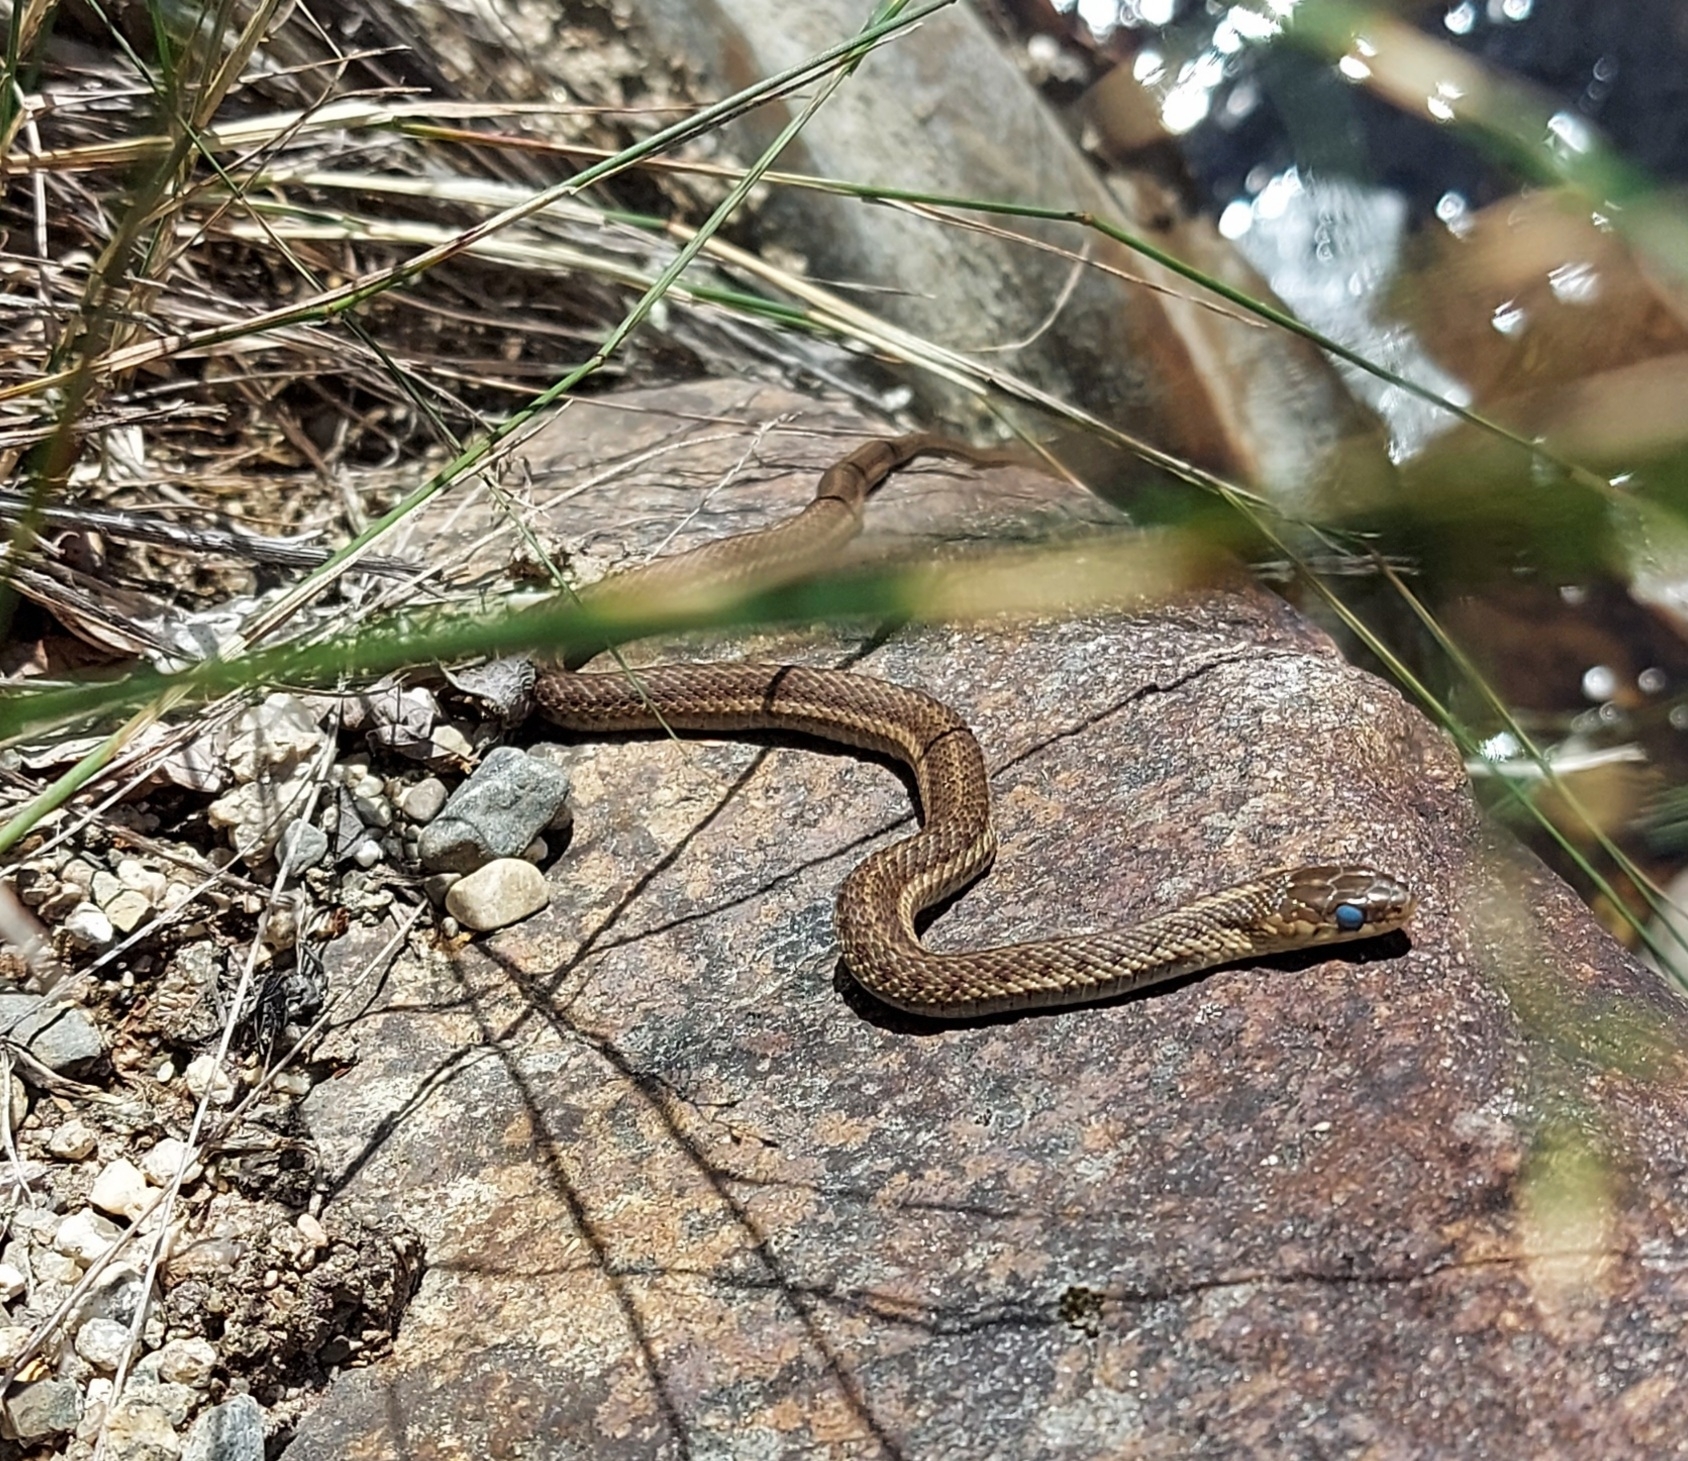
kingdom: Animalia
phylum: Chordata
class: Squamata
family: Colubridae
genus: Thamnophis
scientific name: Thamnophis sirtalis
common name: Common garter snake
